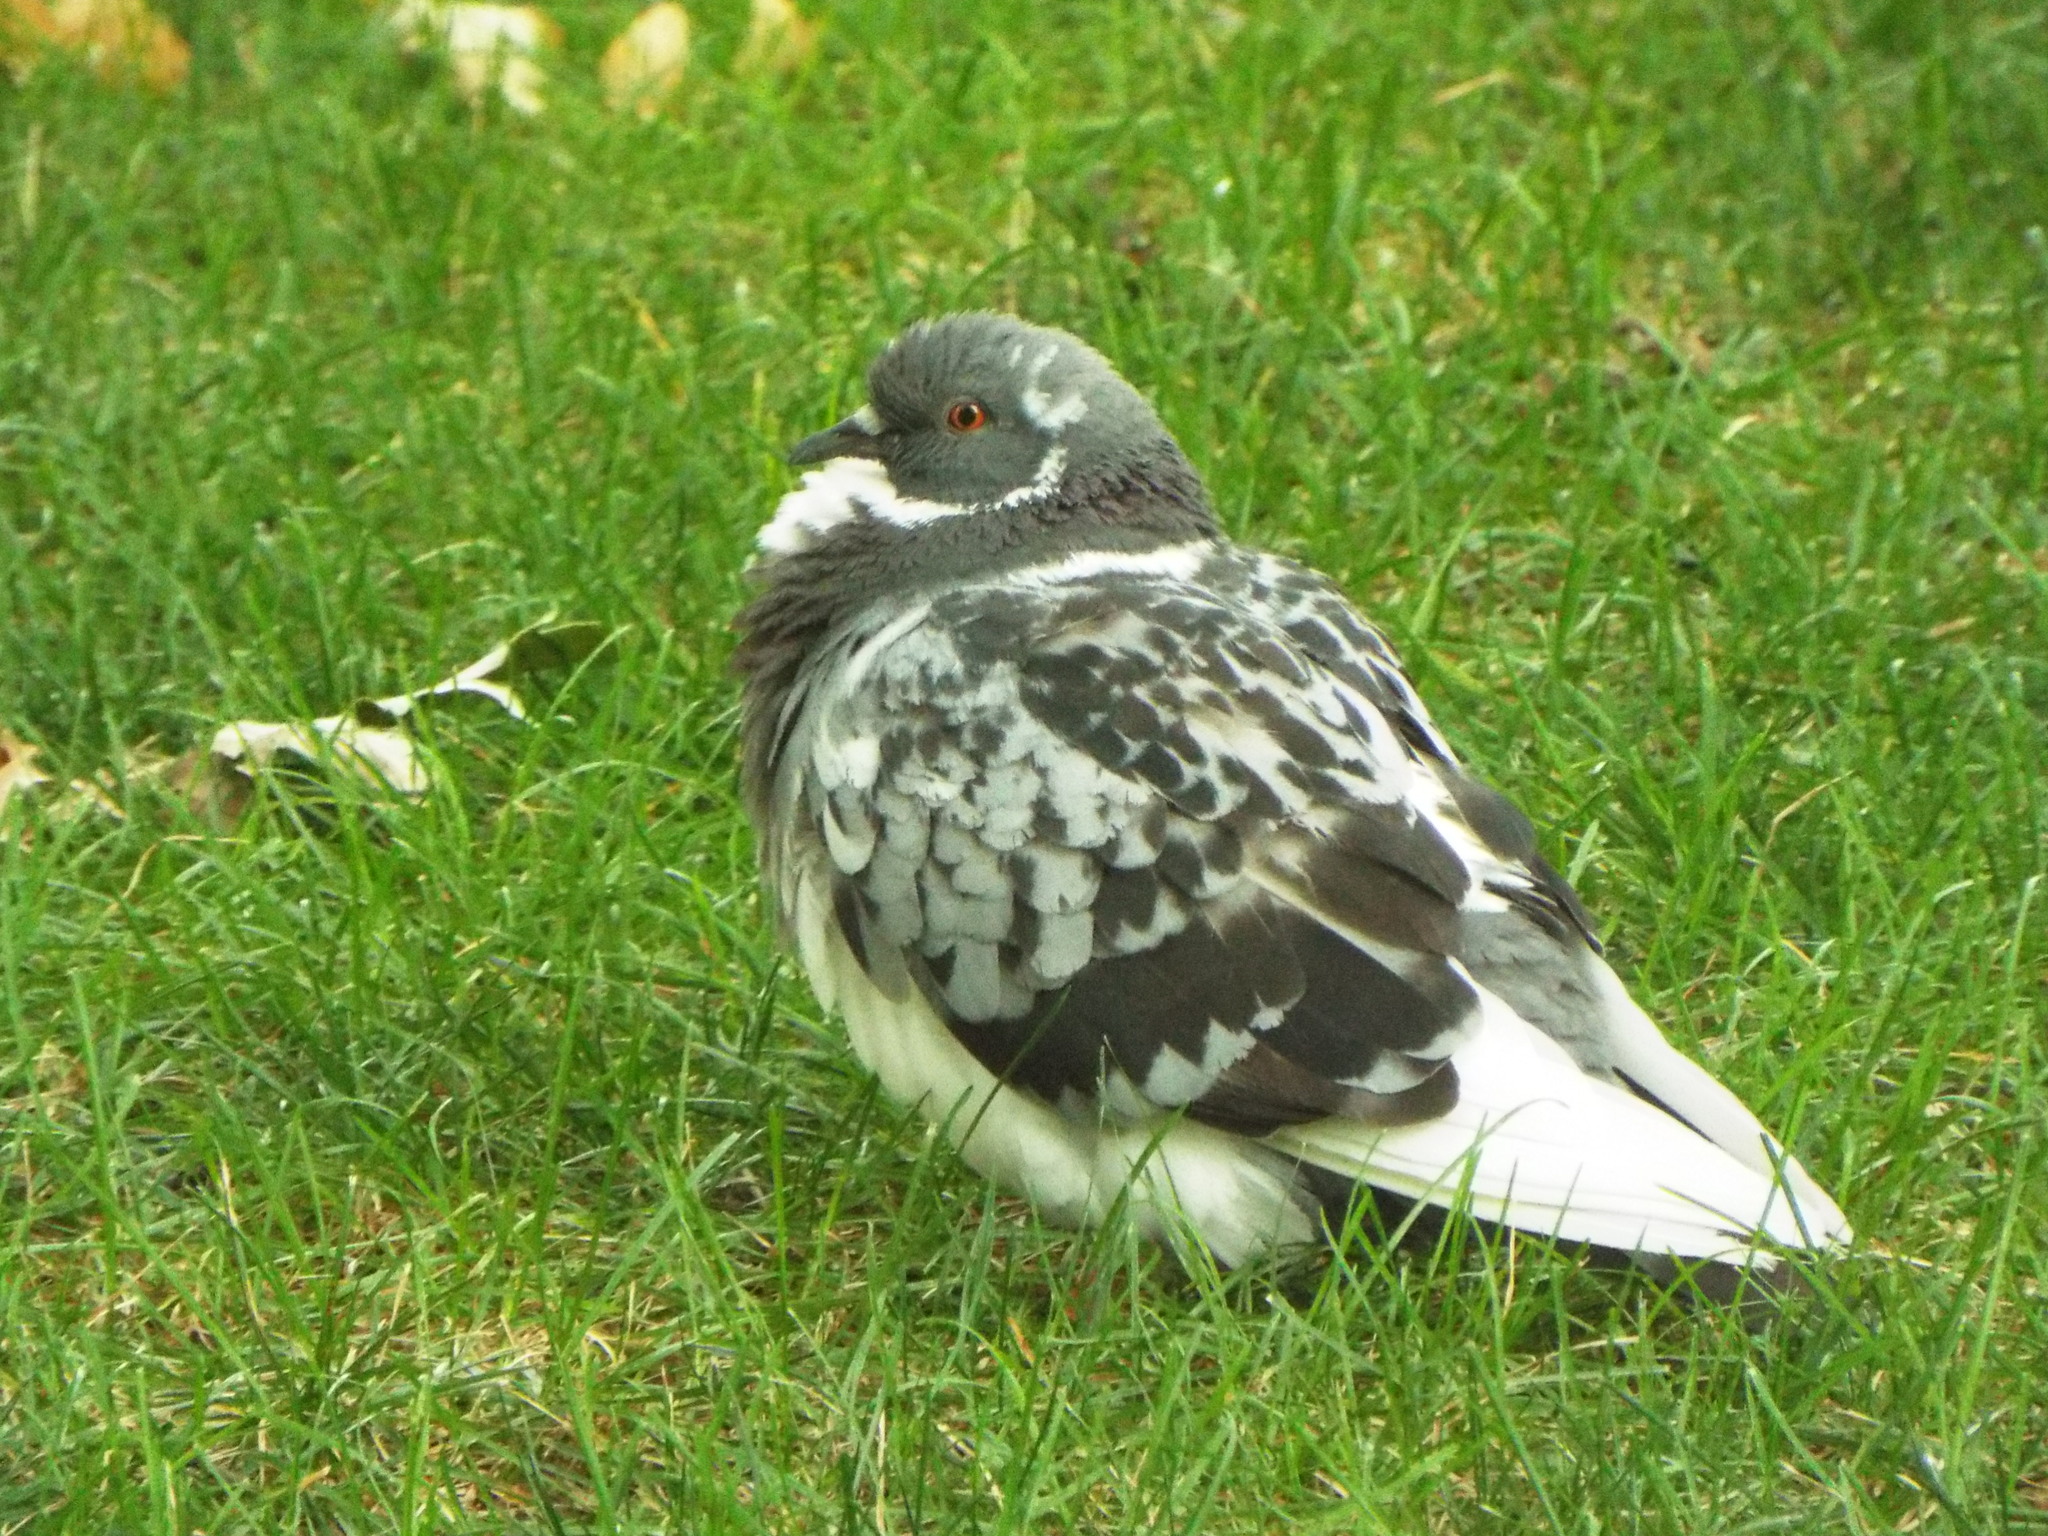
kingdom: Animalia
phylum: Chordata
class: Aves
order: Columbiformes
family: Columbidae
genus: Columba
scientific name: Columba livia
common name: Rock pigeon
